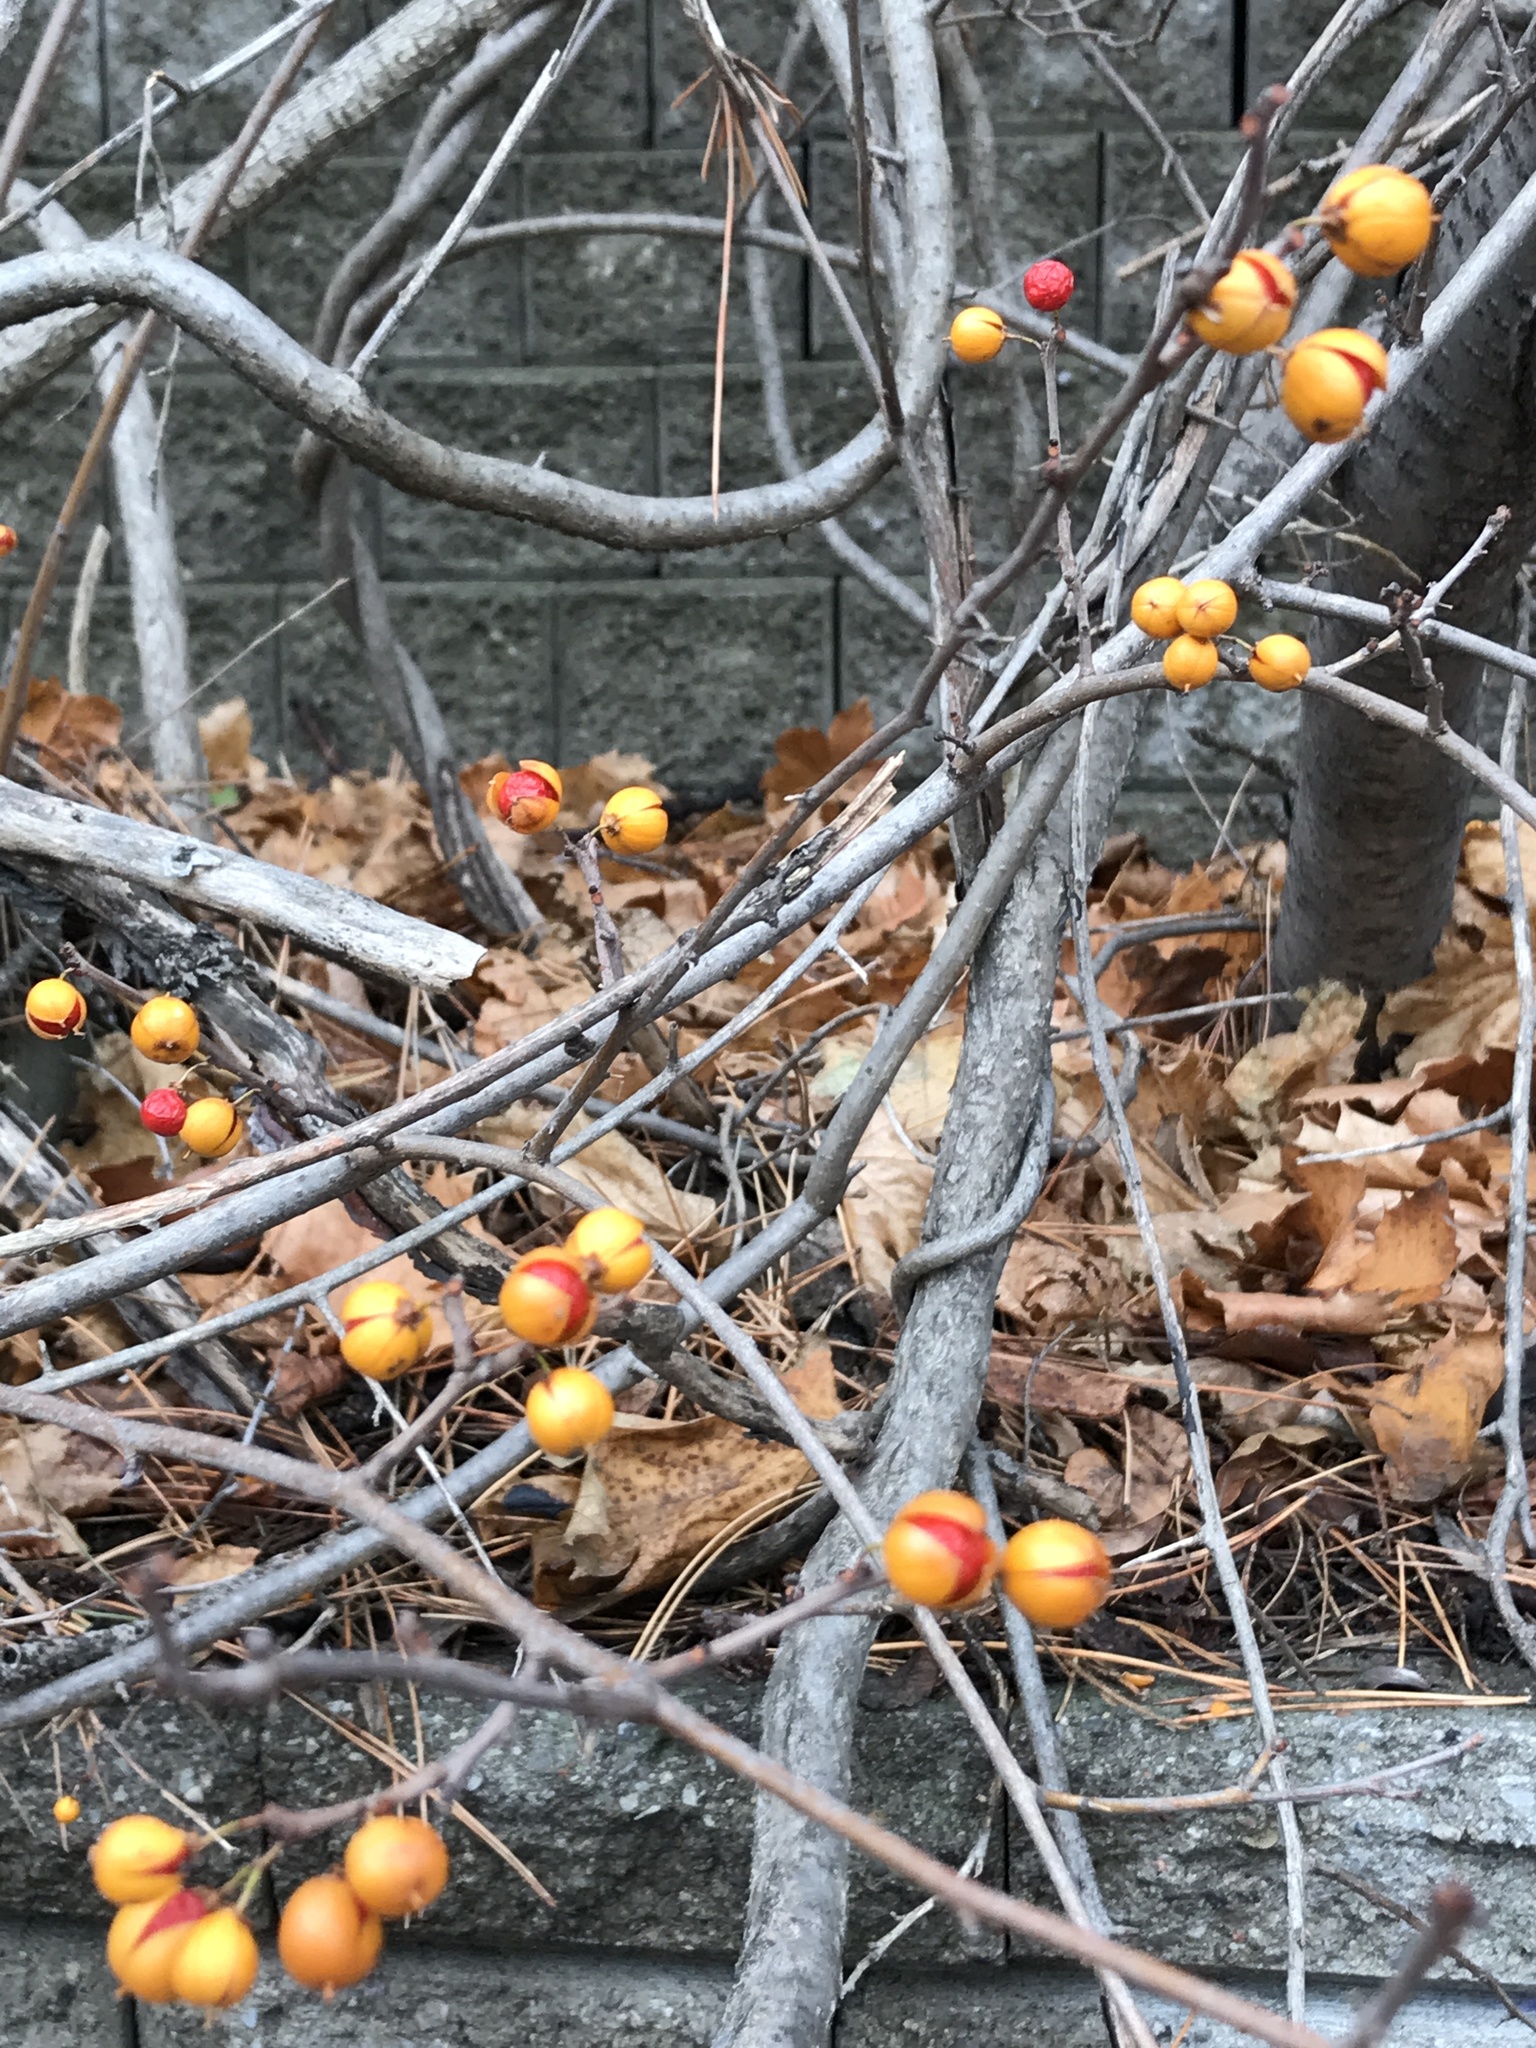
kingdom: Plantae
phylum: Tracheophyta
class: Magnoliopsida
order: Celastrales
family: Celastraceae
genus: Celastrus
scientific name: Celastrus orbiculatus
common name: Oriental bittersweet
